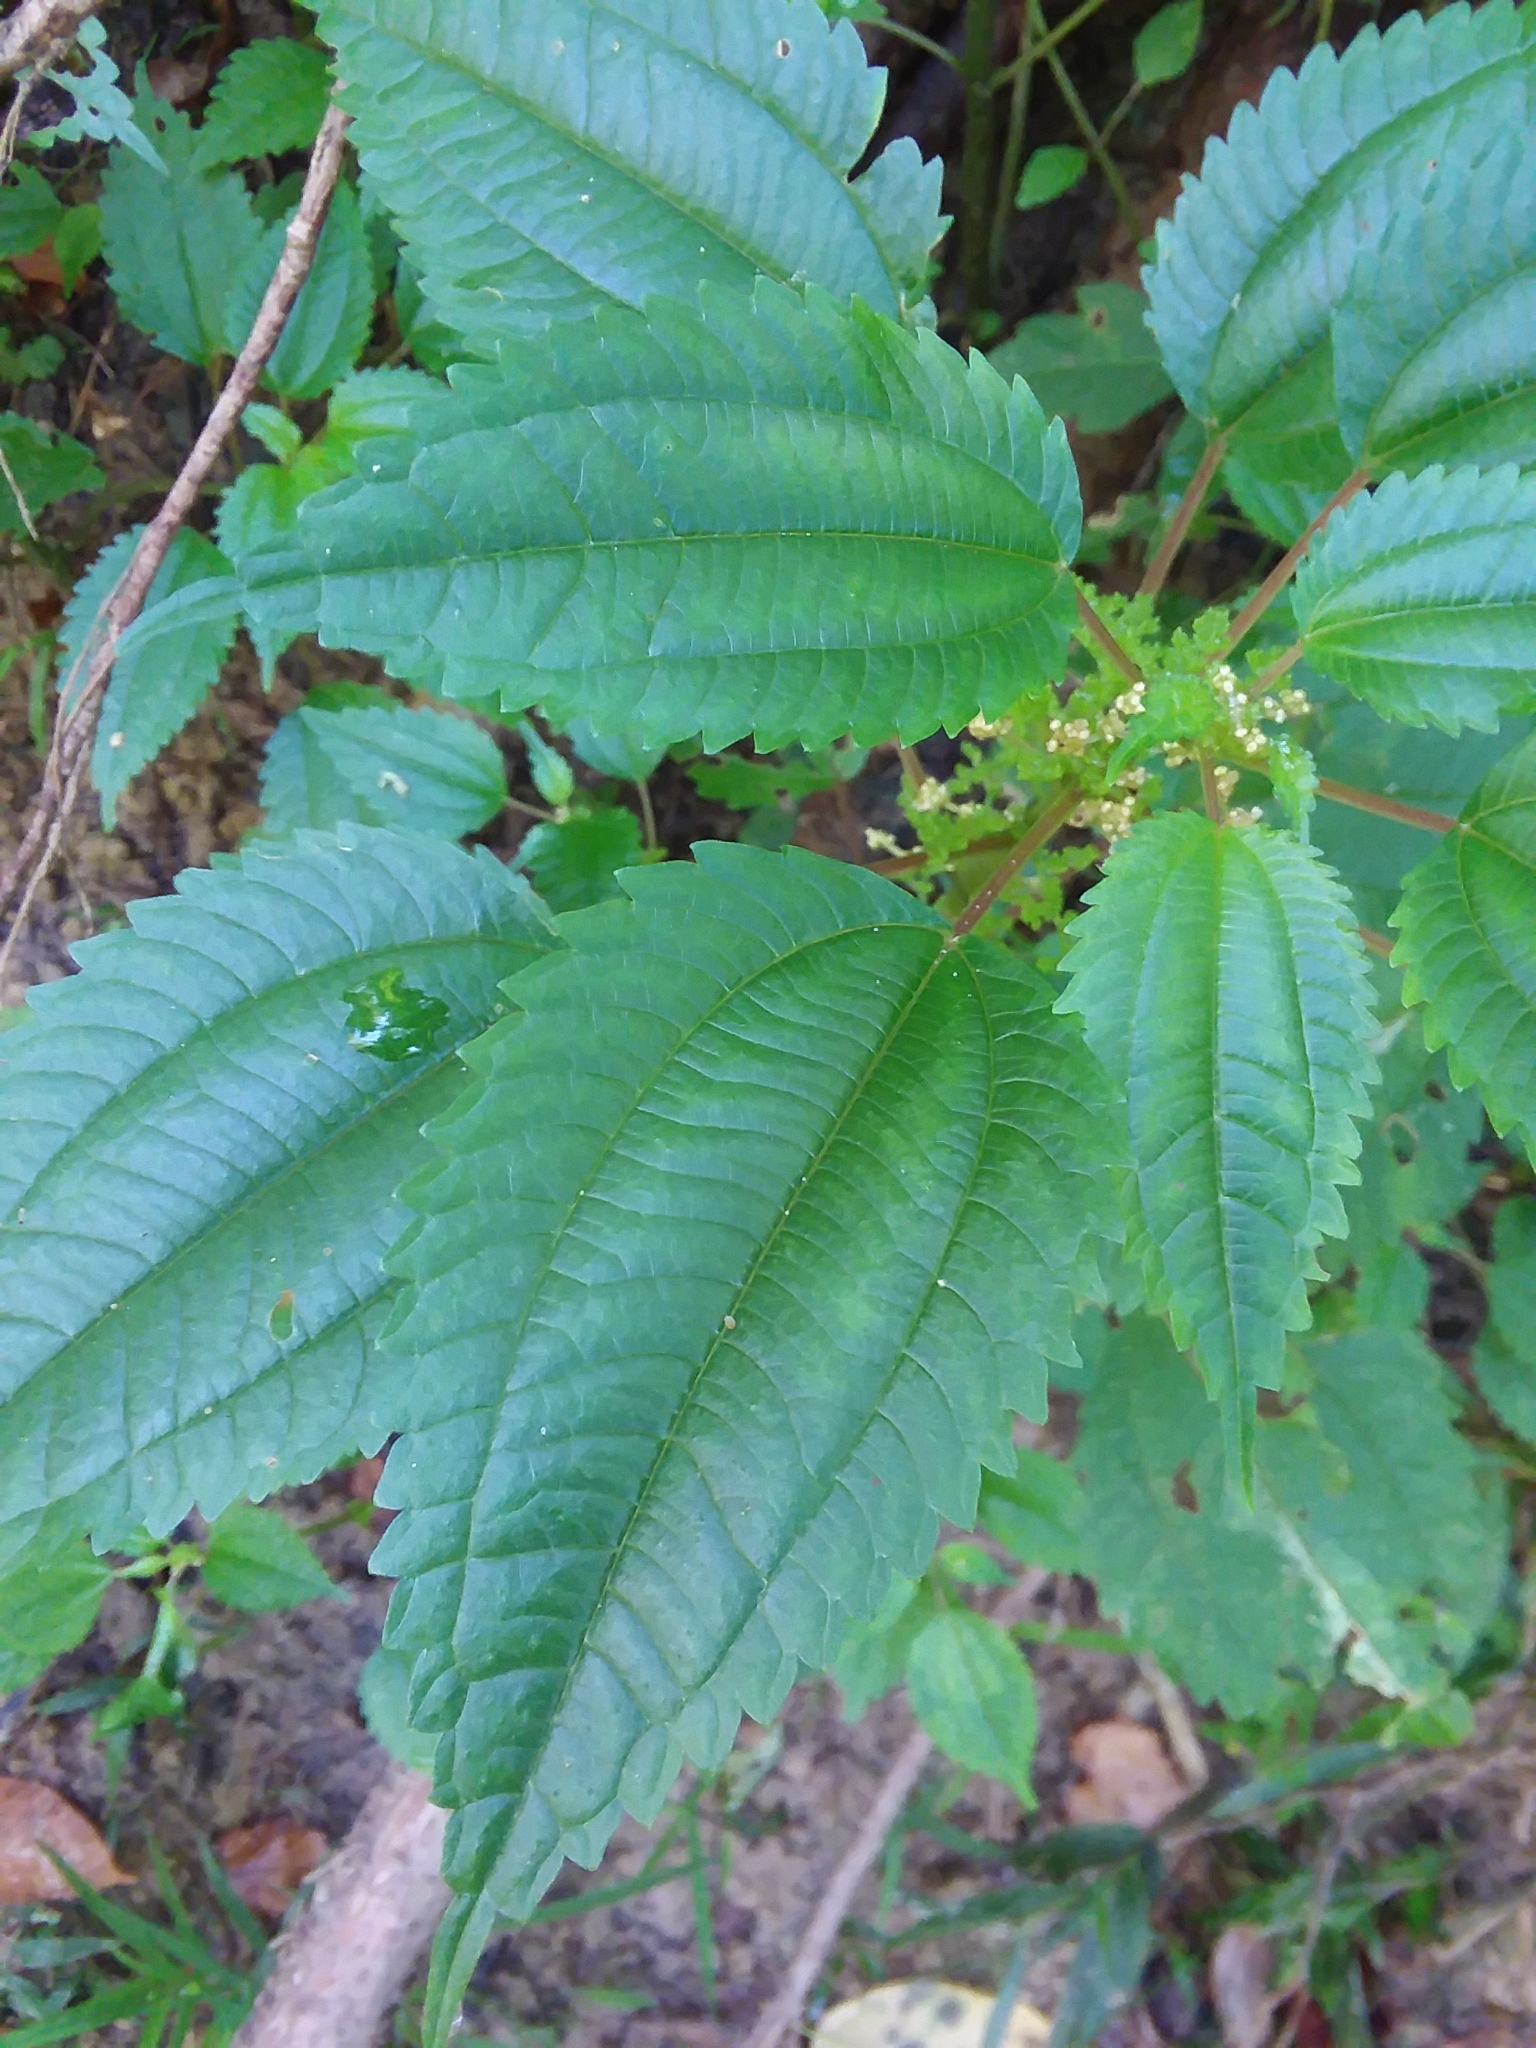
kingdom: Plantae
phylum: Tracheophyta
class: Magnoliopsida
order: Rosales
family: Urticaceae
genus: Pilea
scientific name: Pilea pumila
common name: Clearweed
